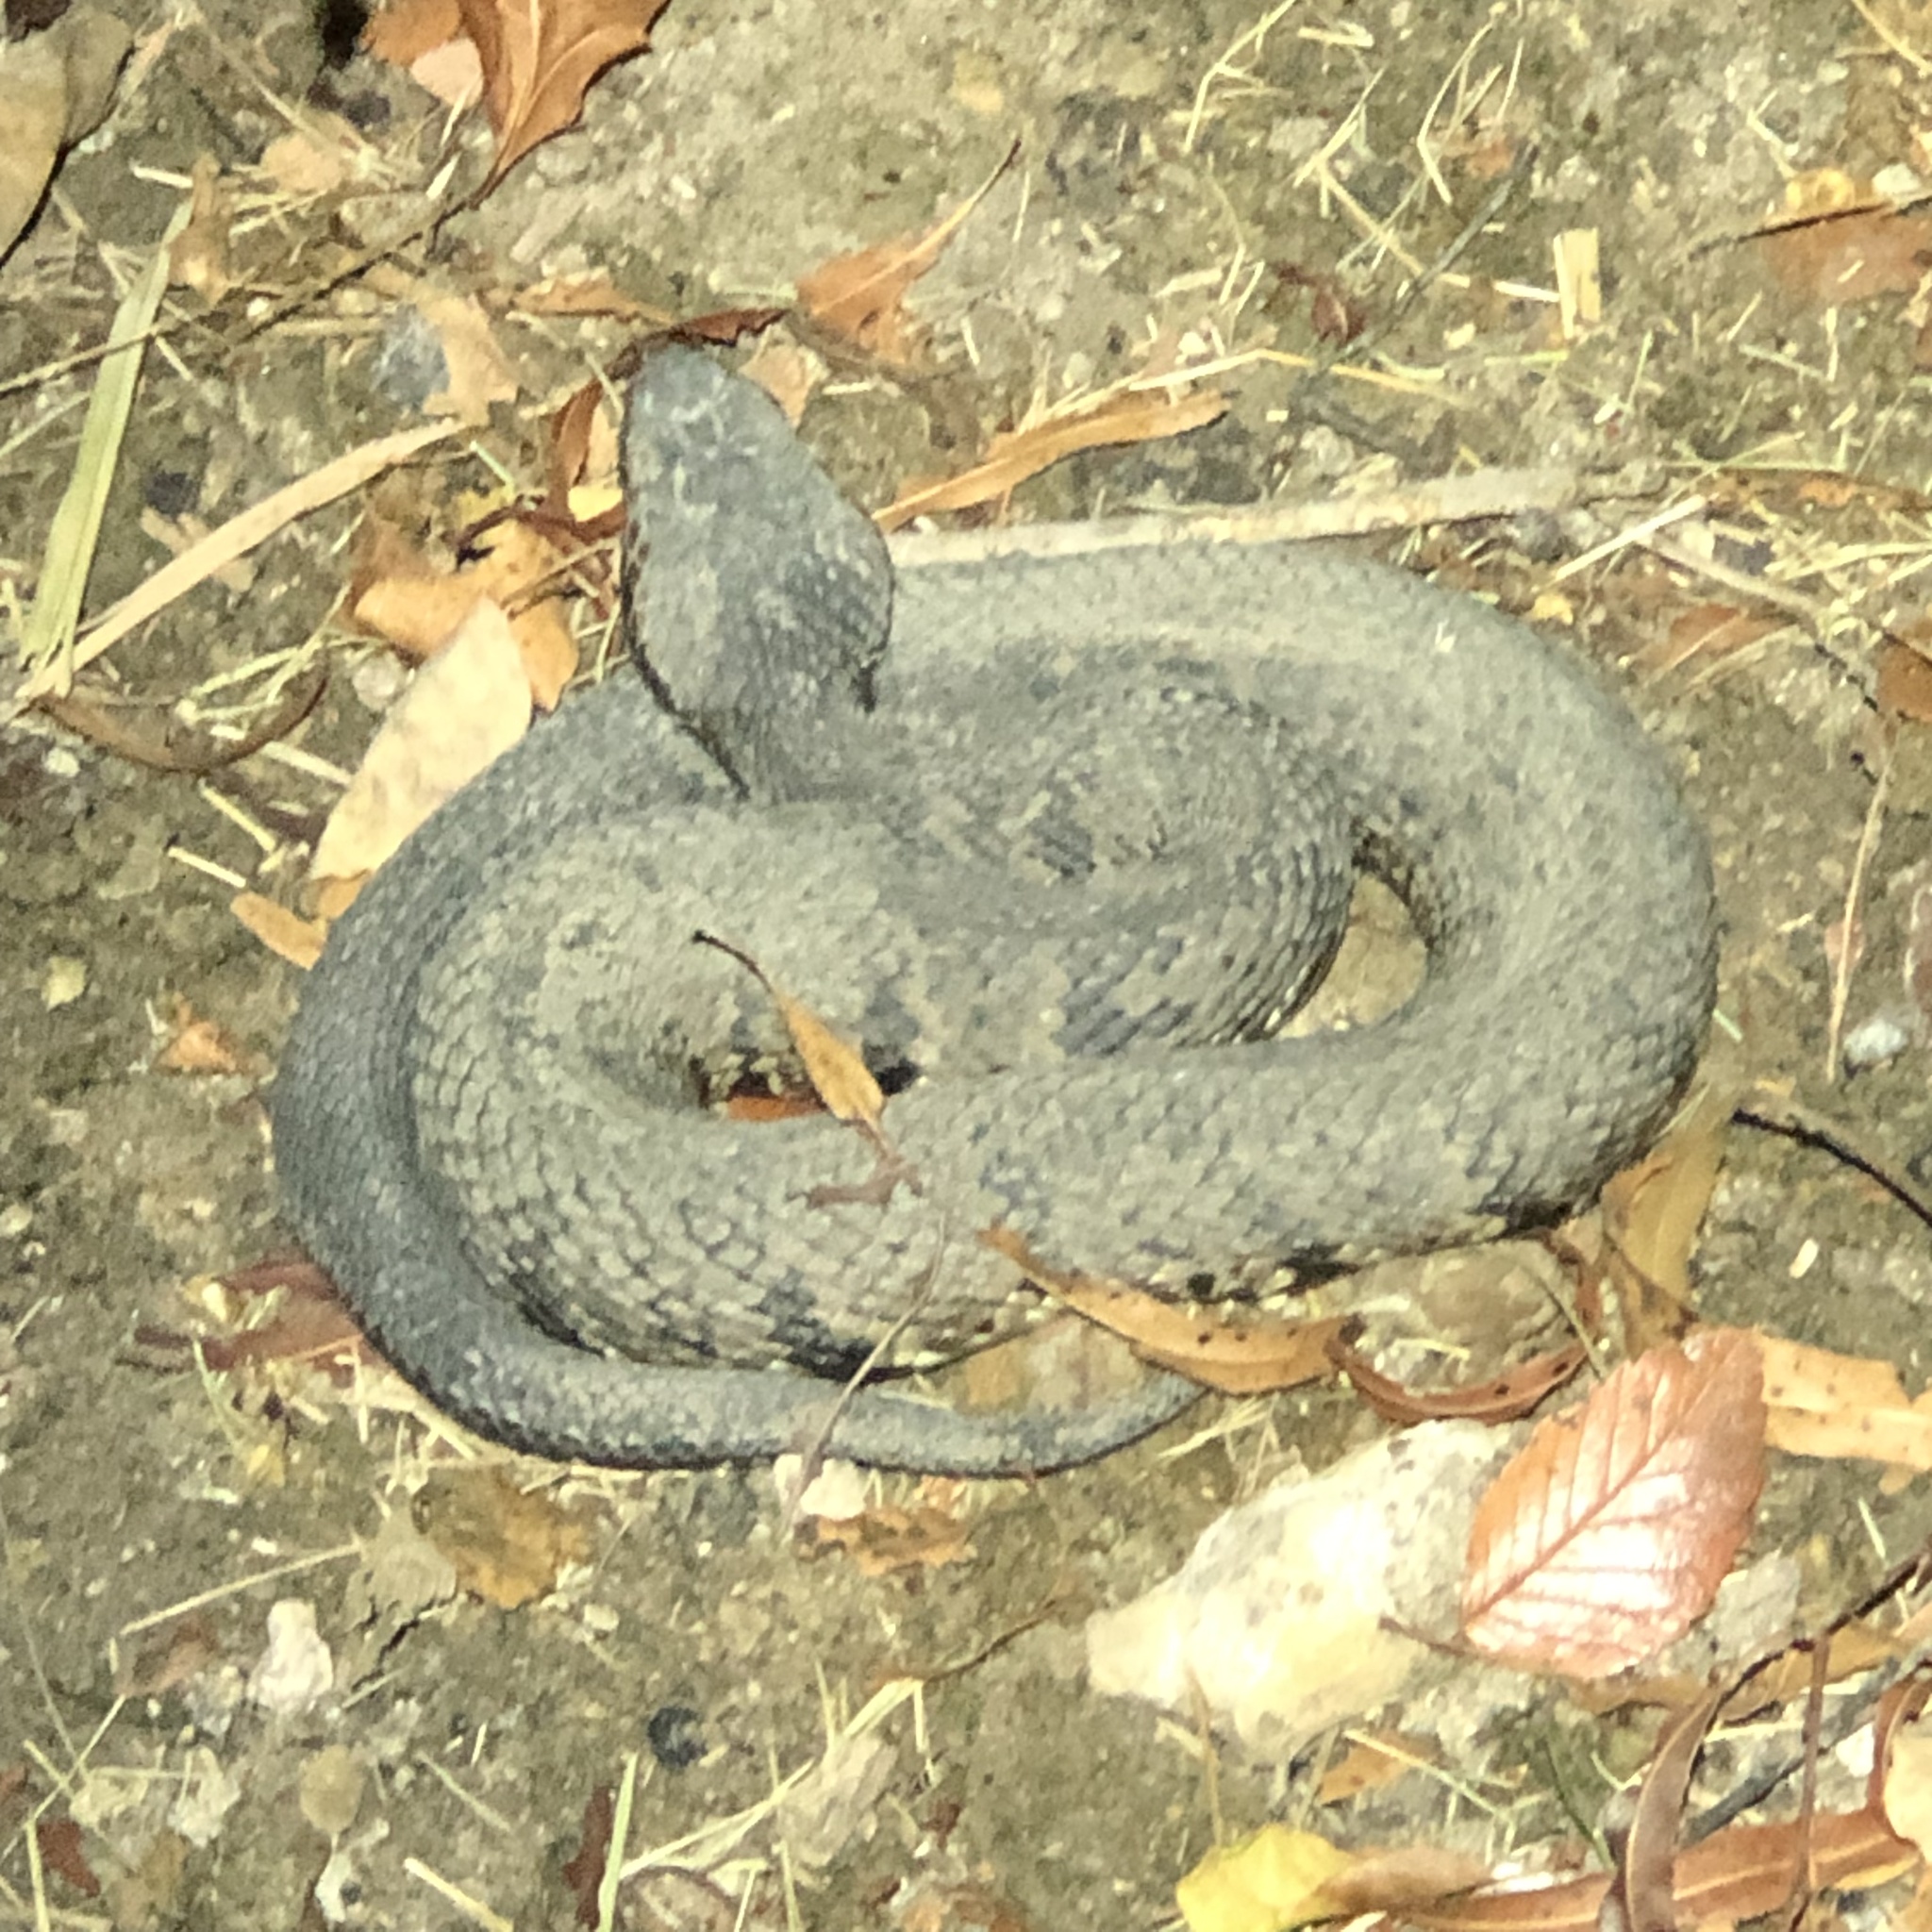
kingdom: Animalia
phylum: Chordata
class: Squamata
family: Viperidae
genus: Agkistrodon
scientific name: Agkistrodon piscivorus
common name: Cottonmouth
